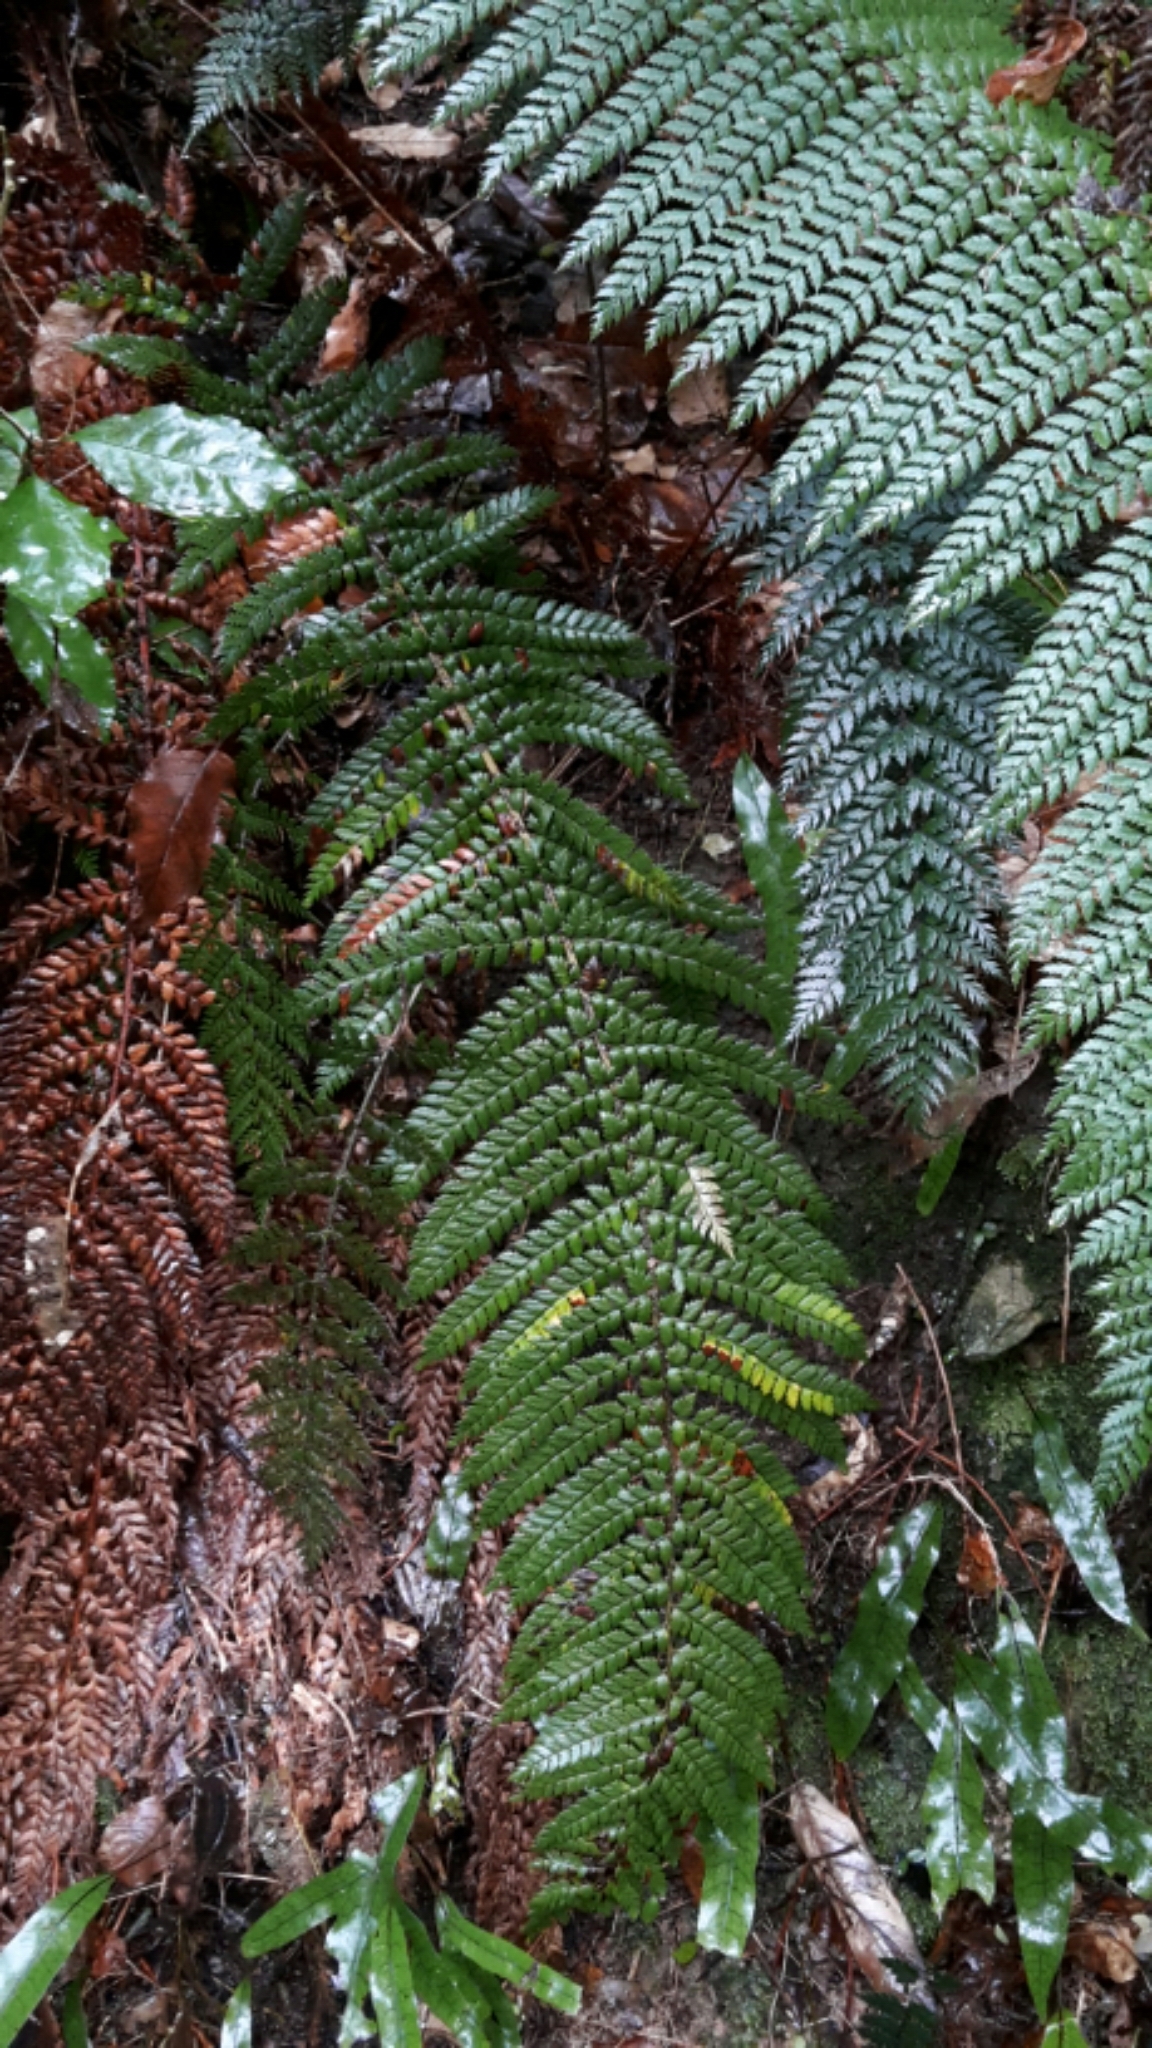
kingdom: Plantae
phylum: Tracheophyta
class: Polypodiopsida
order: Polypodiales
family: Dryopteridaceae
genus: Polystichum
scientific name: Polystichum vestitum
